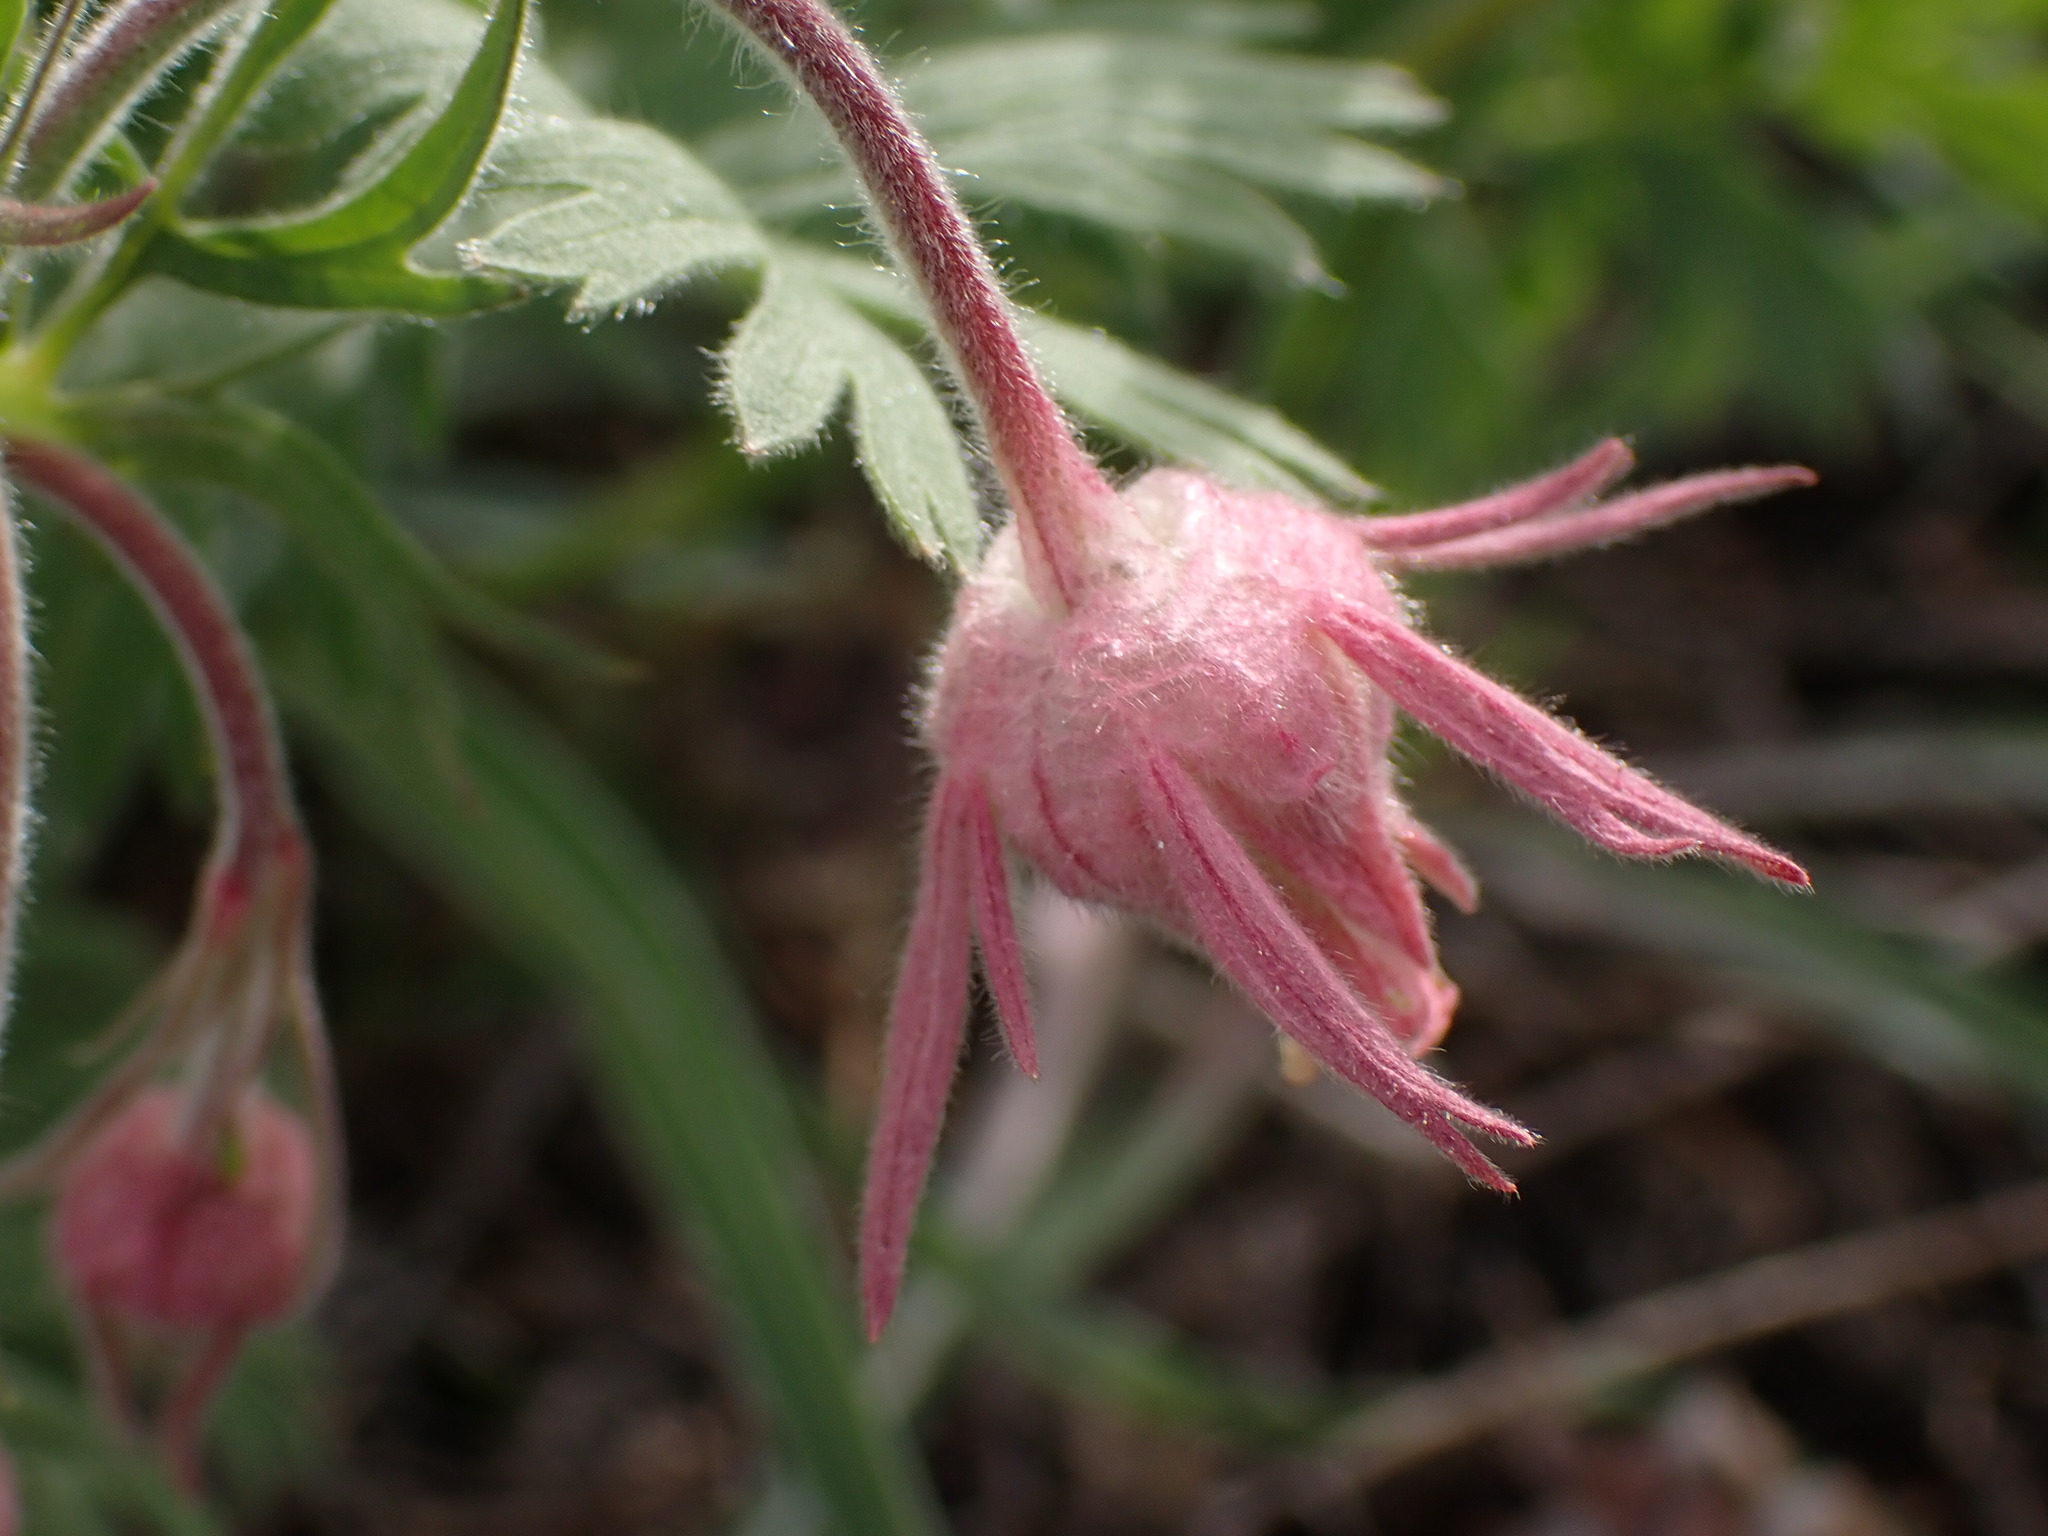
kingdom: Plantae
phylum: Tracheophyta
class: Magnoliopsida
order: Rosales
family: Rosaceae
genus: Geum
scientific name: Geum triflorum
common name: Old man's whiskers
